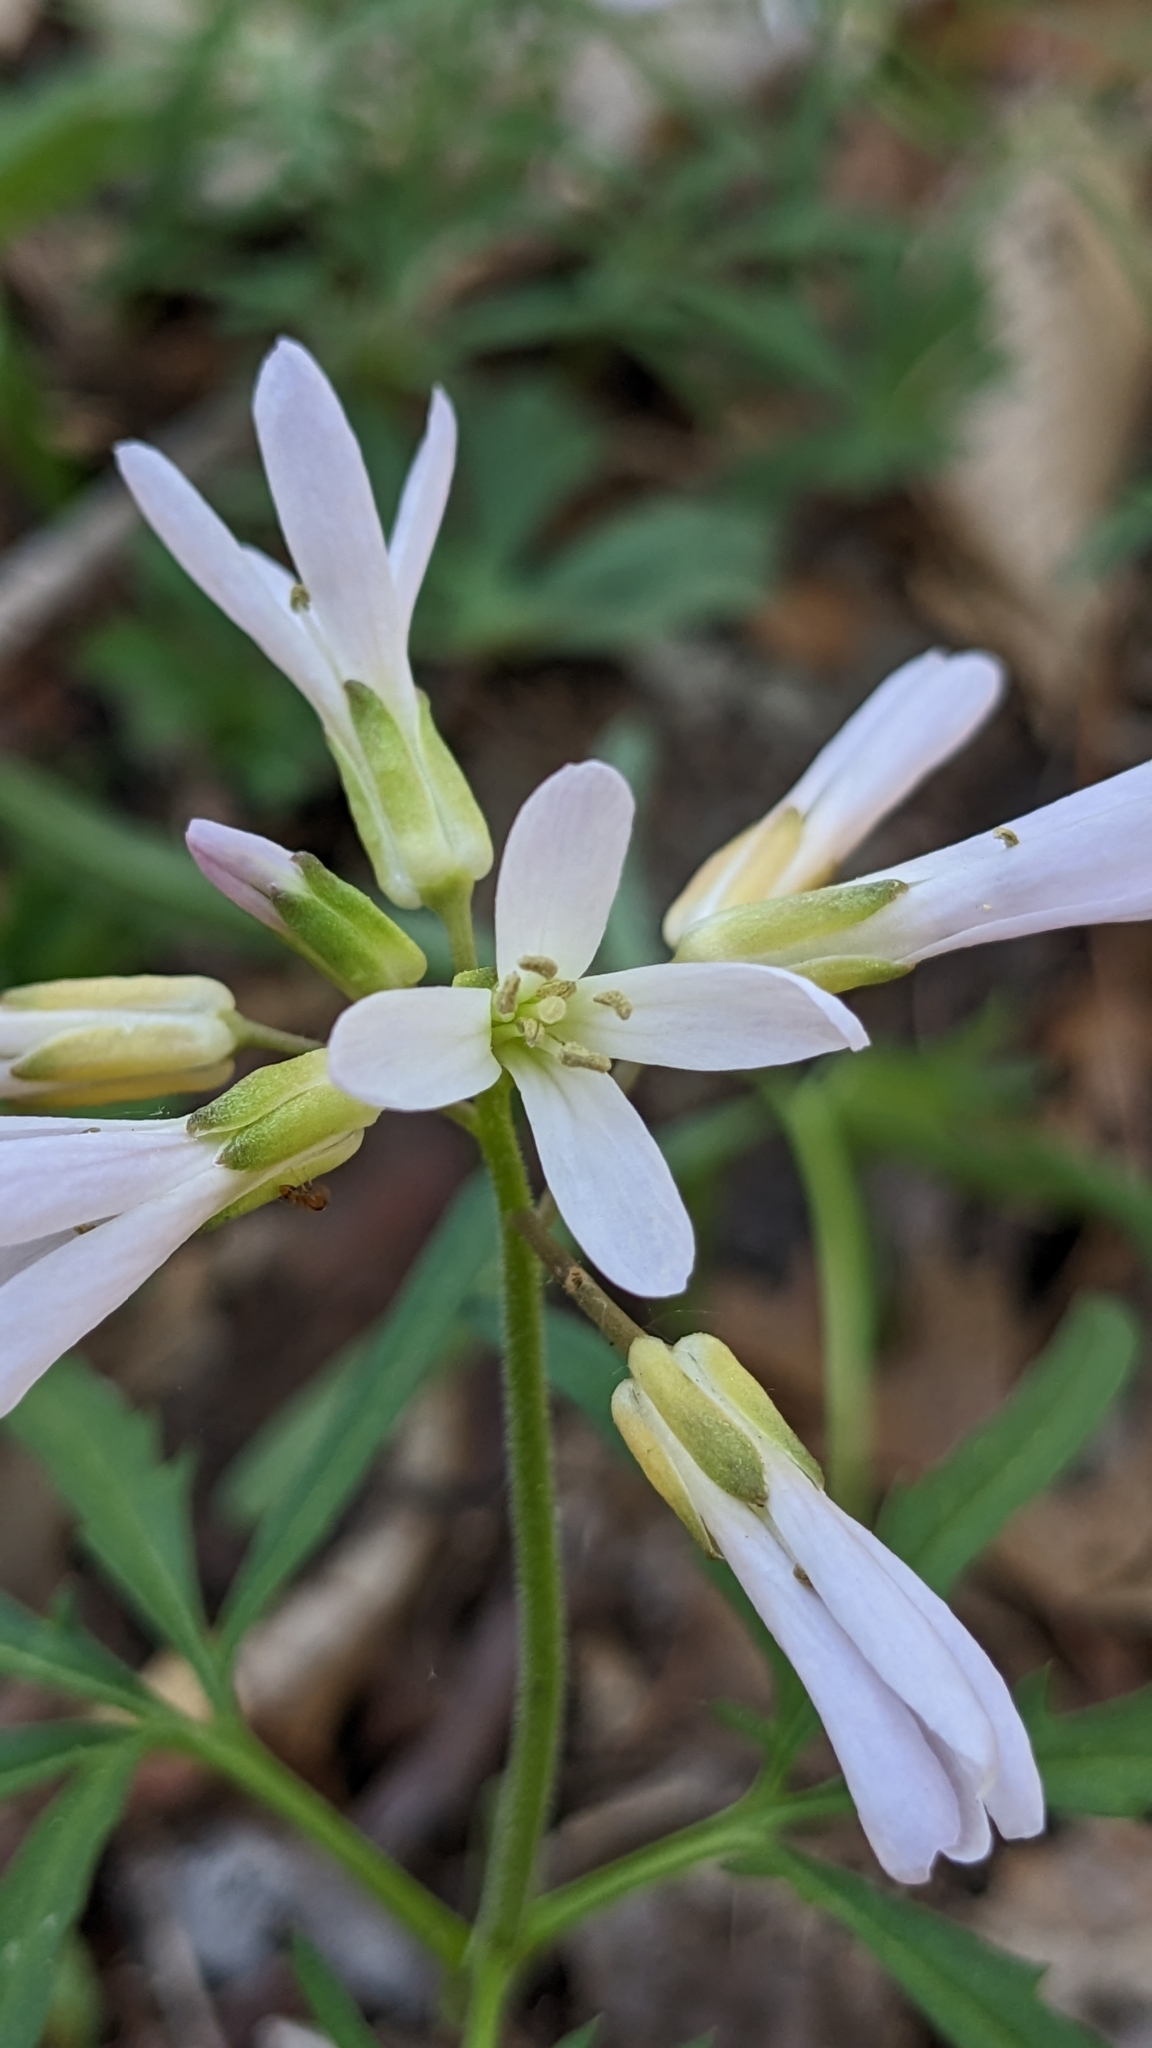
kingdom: Plantae
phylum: Tracheophyta
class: Magnoliopsida
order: Brassicales
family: Brassicaceae
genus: Cardamine
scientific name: Cardamine concatenata
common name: Cut-leaf toothcup
